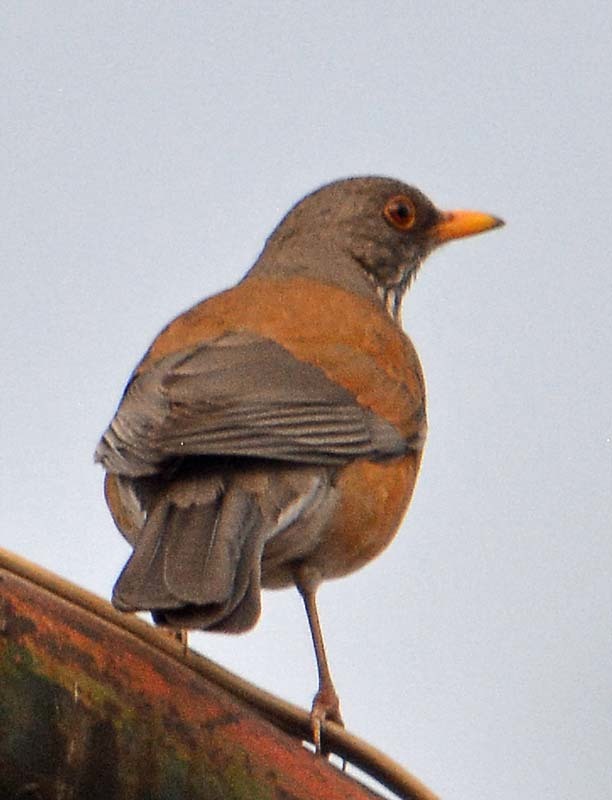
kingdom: Animalia
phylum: Chordata
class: Aves
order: Passeriformes
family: Turdidae
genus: Turdus
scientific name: Turdus rufopalliatus
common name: Rufous-backed robin
